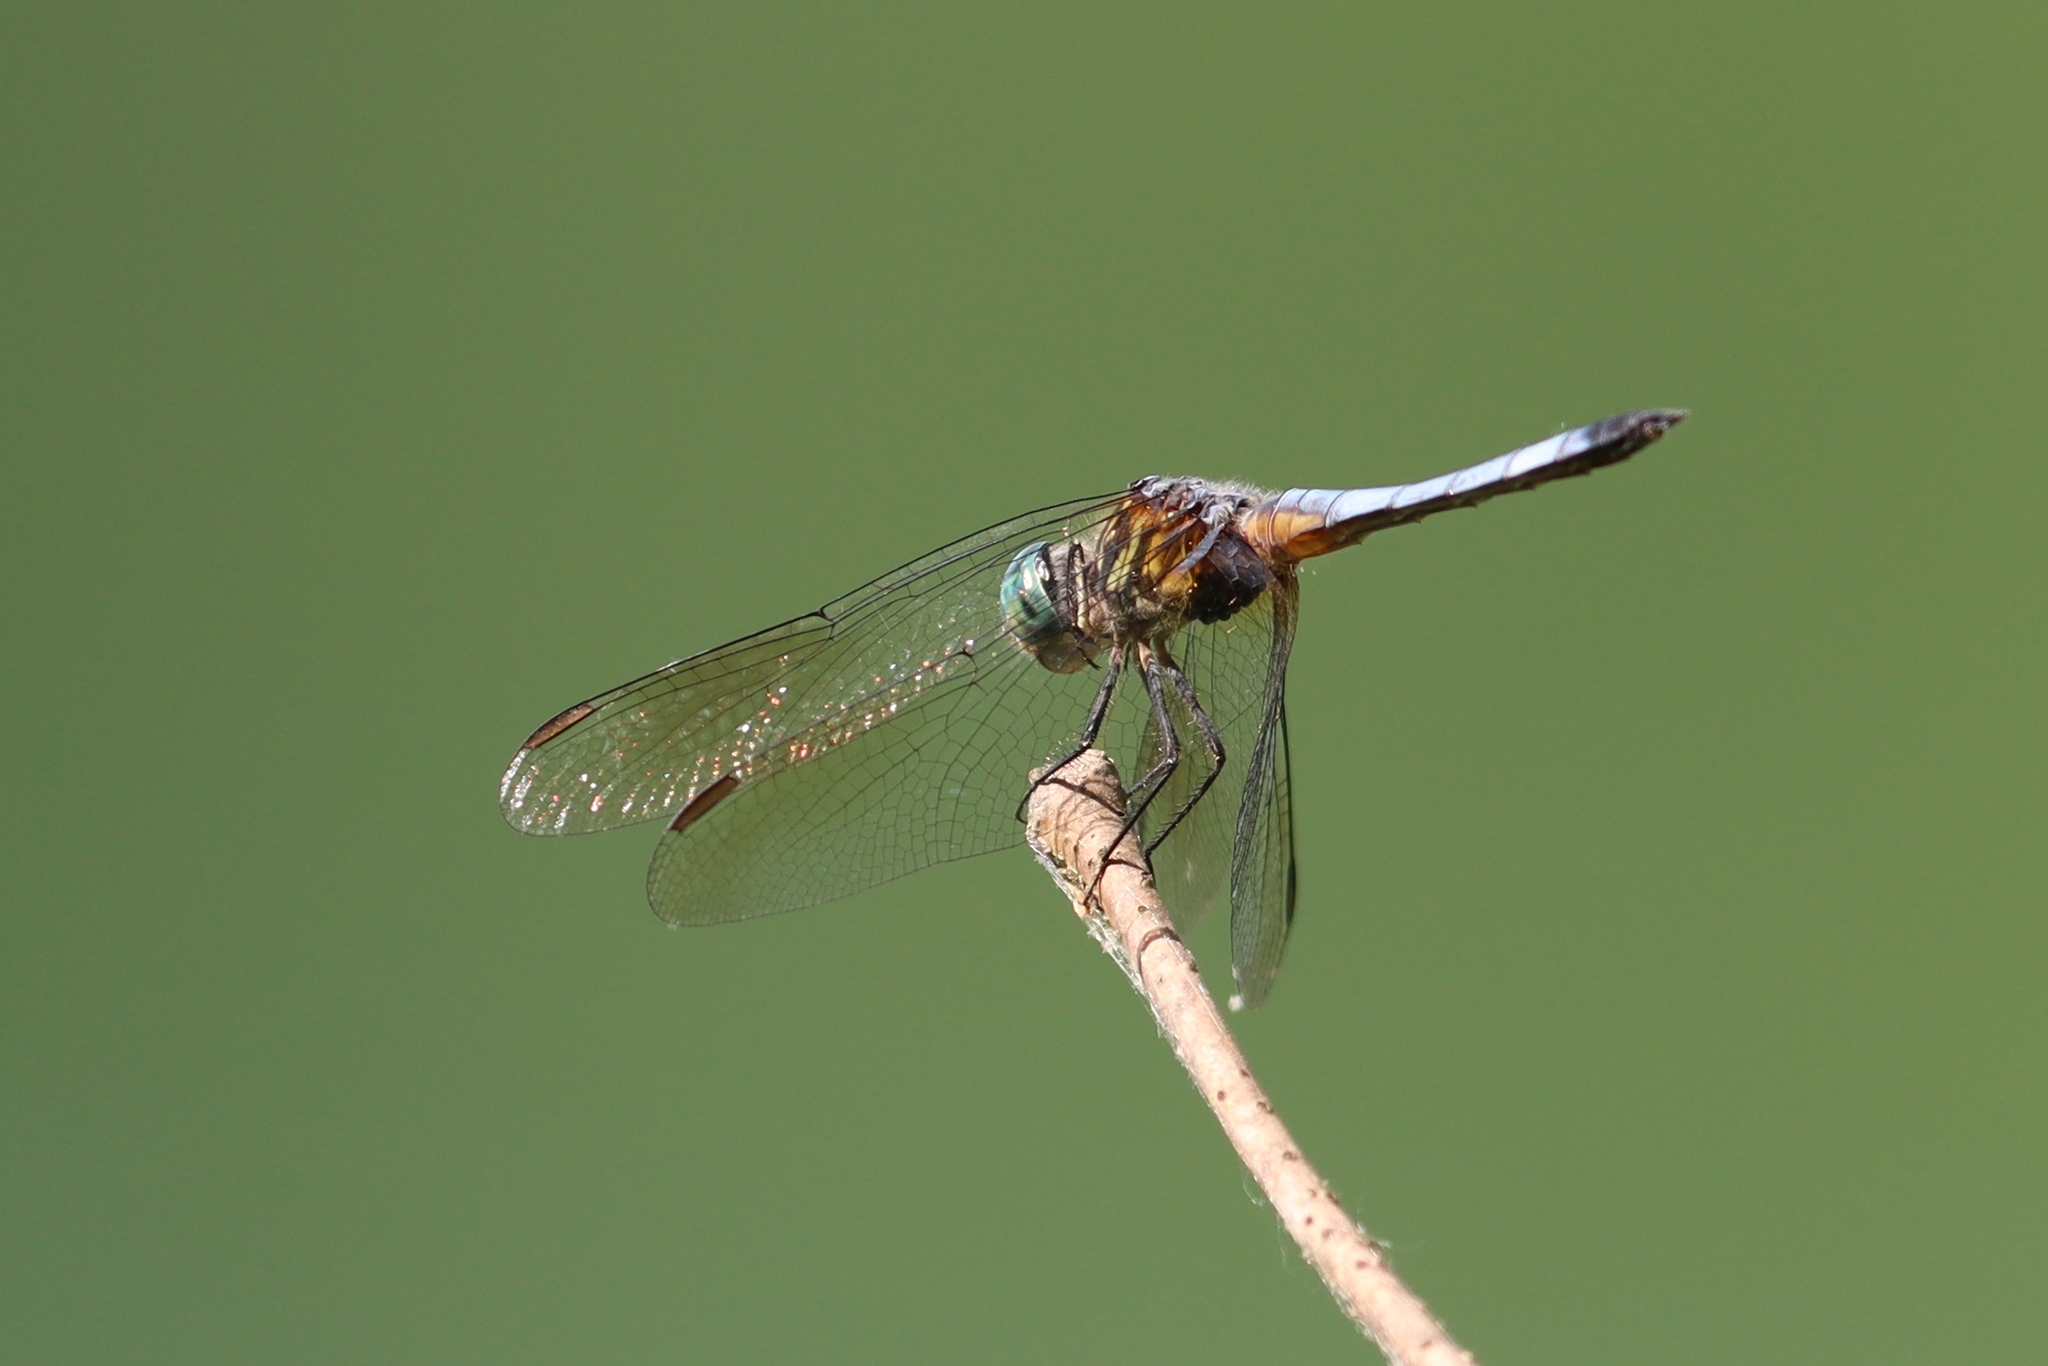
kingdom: Animalia
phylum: Arthropoda
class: Insecta
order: Odonata
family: Libellulidae
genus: Pachydiplax
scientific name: Pachydiplax longipennis
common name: Blue dasher
